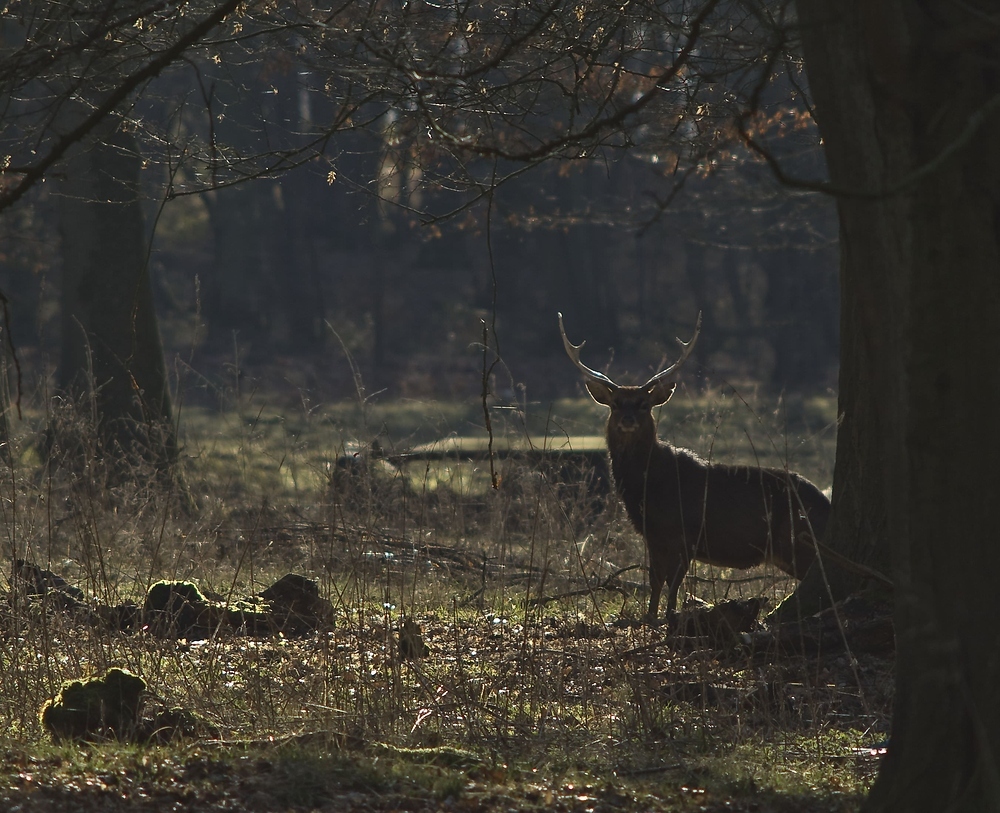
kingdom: Animalia
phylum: Chordata
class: Mammalia
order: Artiodactyla
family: Cervidae
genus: Cervus
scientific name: Cervus nippon
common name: Sika deer
